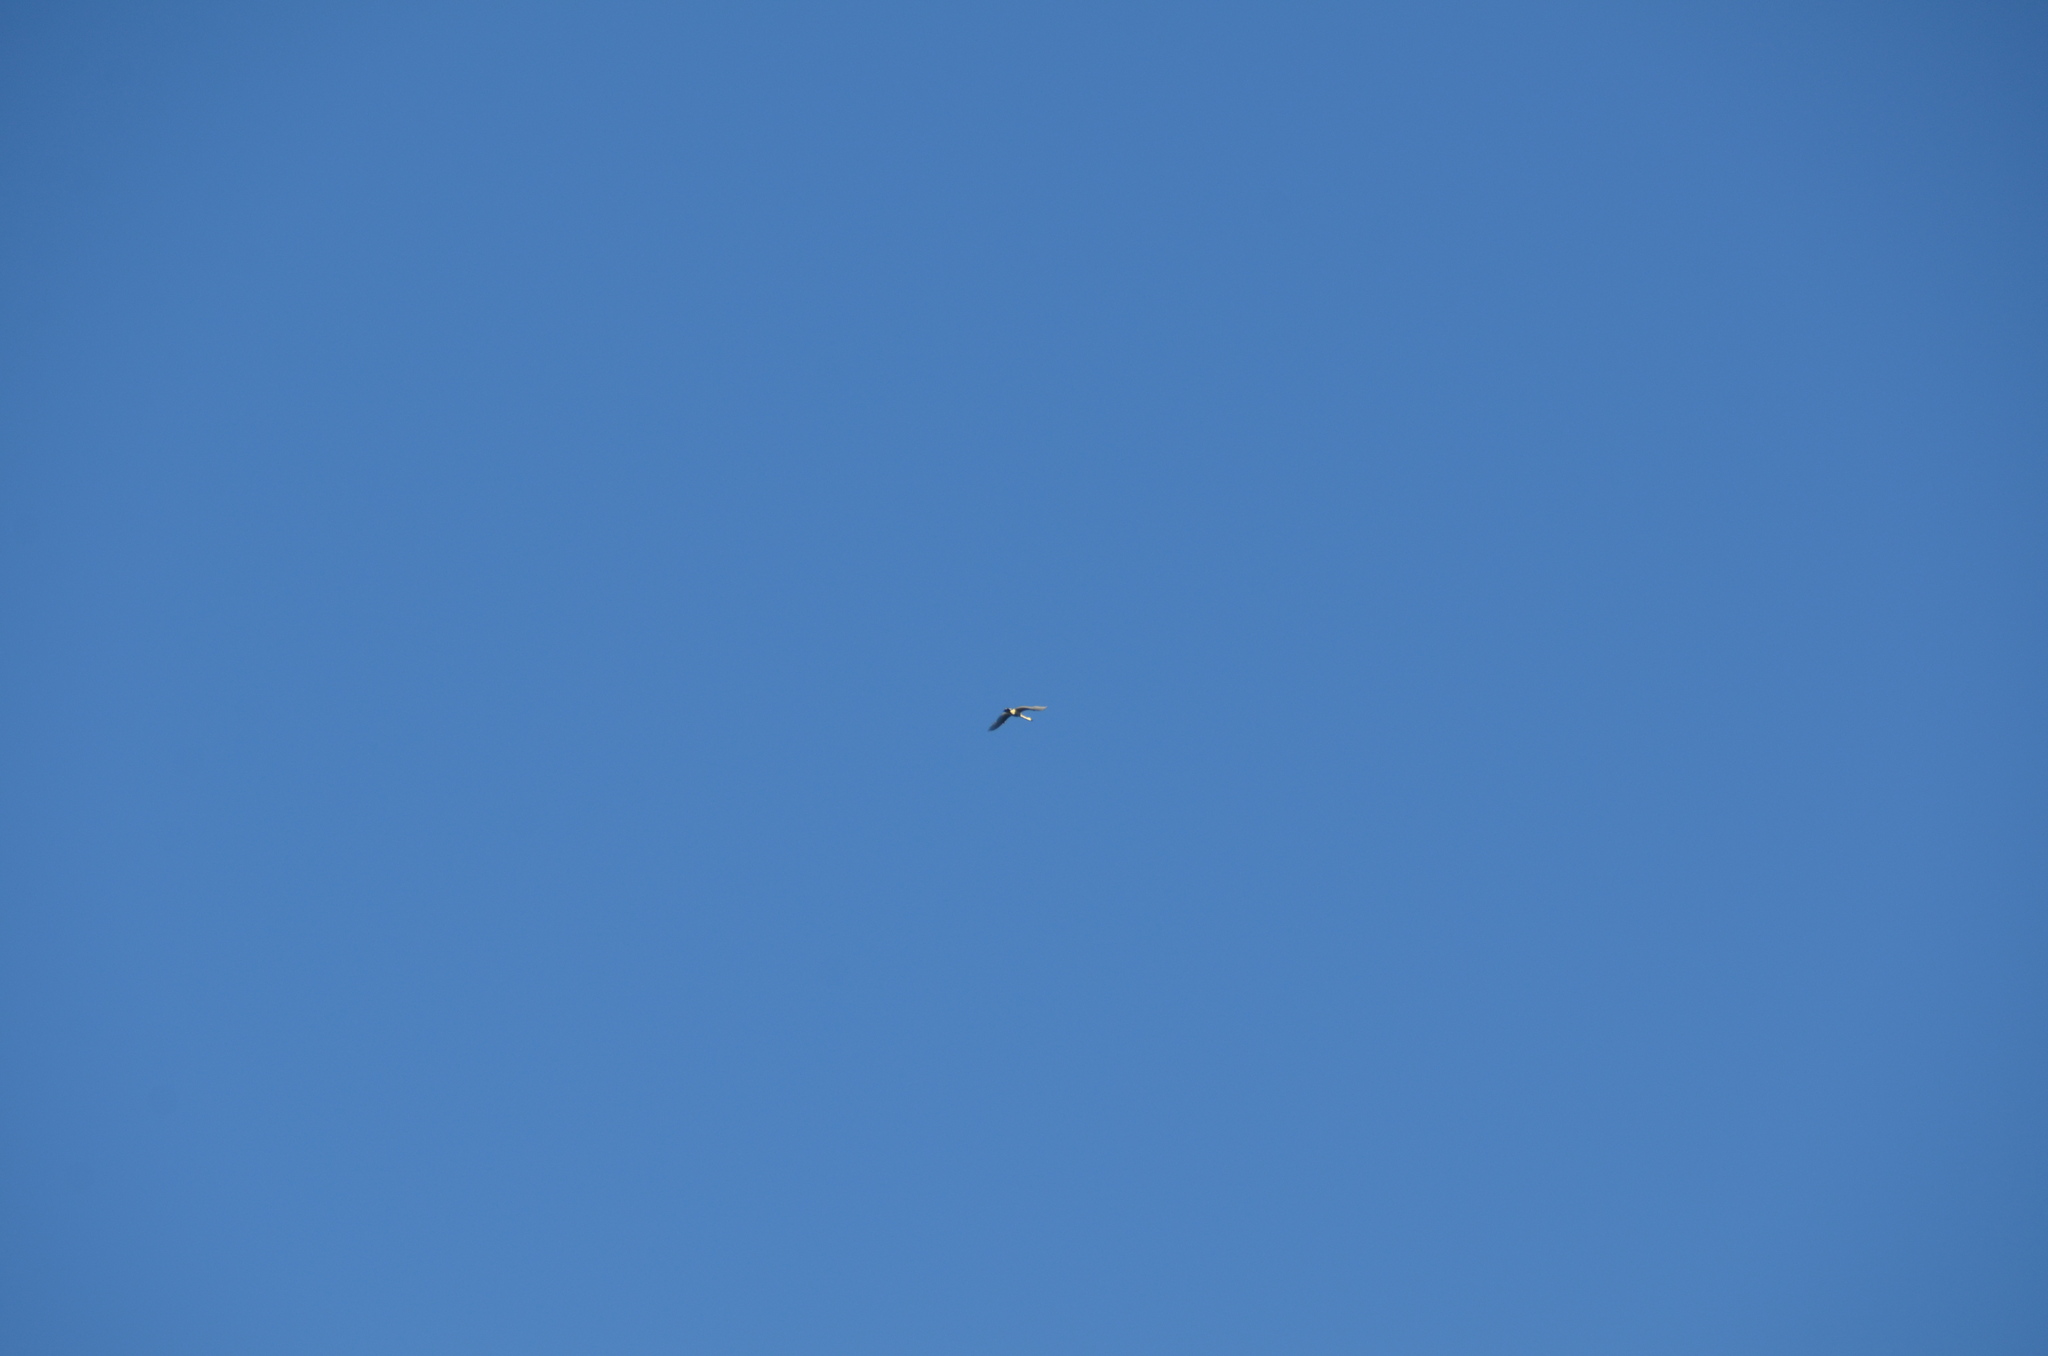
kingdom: Animalia
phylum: Chordata
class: Aves
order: Anseriformes
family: Anatidae
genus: Cygnus
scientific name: Cygnus buccinator
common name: Trumpeter swan
